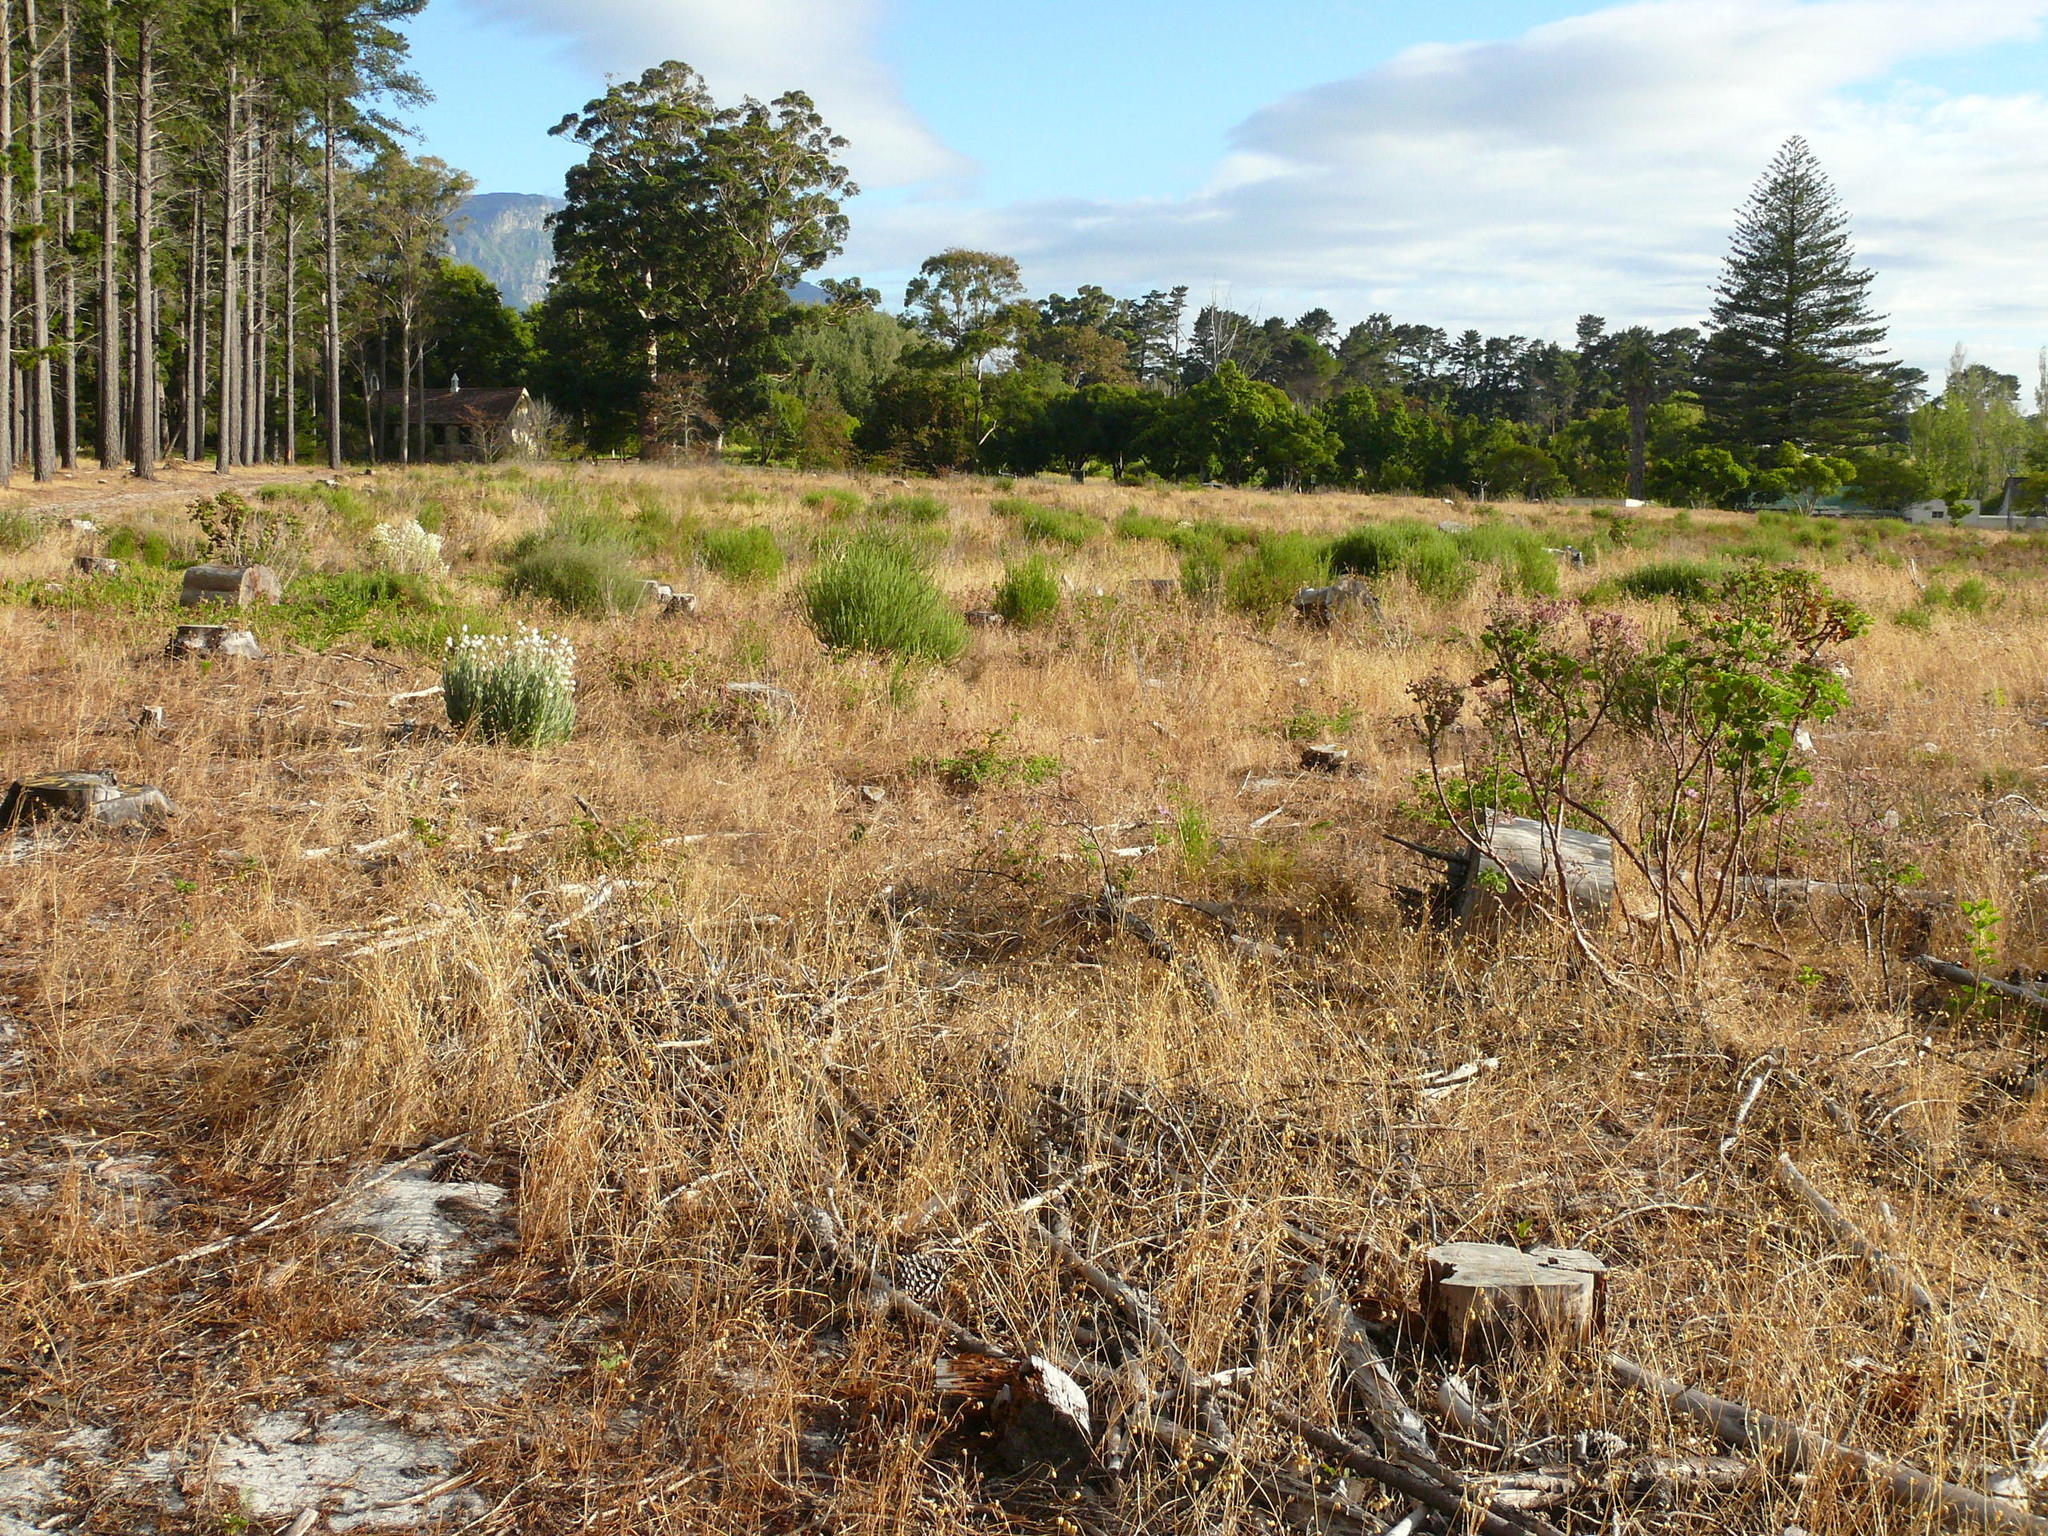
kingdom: Plantae
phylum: Tracheophyta
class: Magnoliopsida
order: Geraniales
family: Geraniaceae
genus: Pelargonium
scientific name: Pelargonium cucullatum
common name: Tree pelargonium
